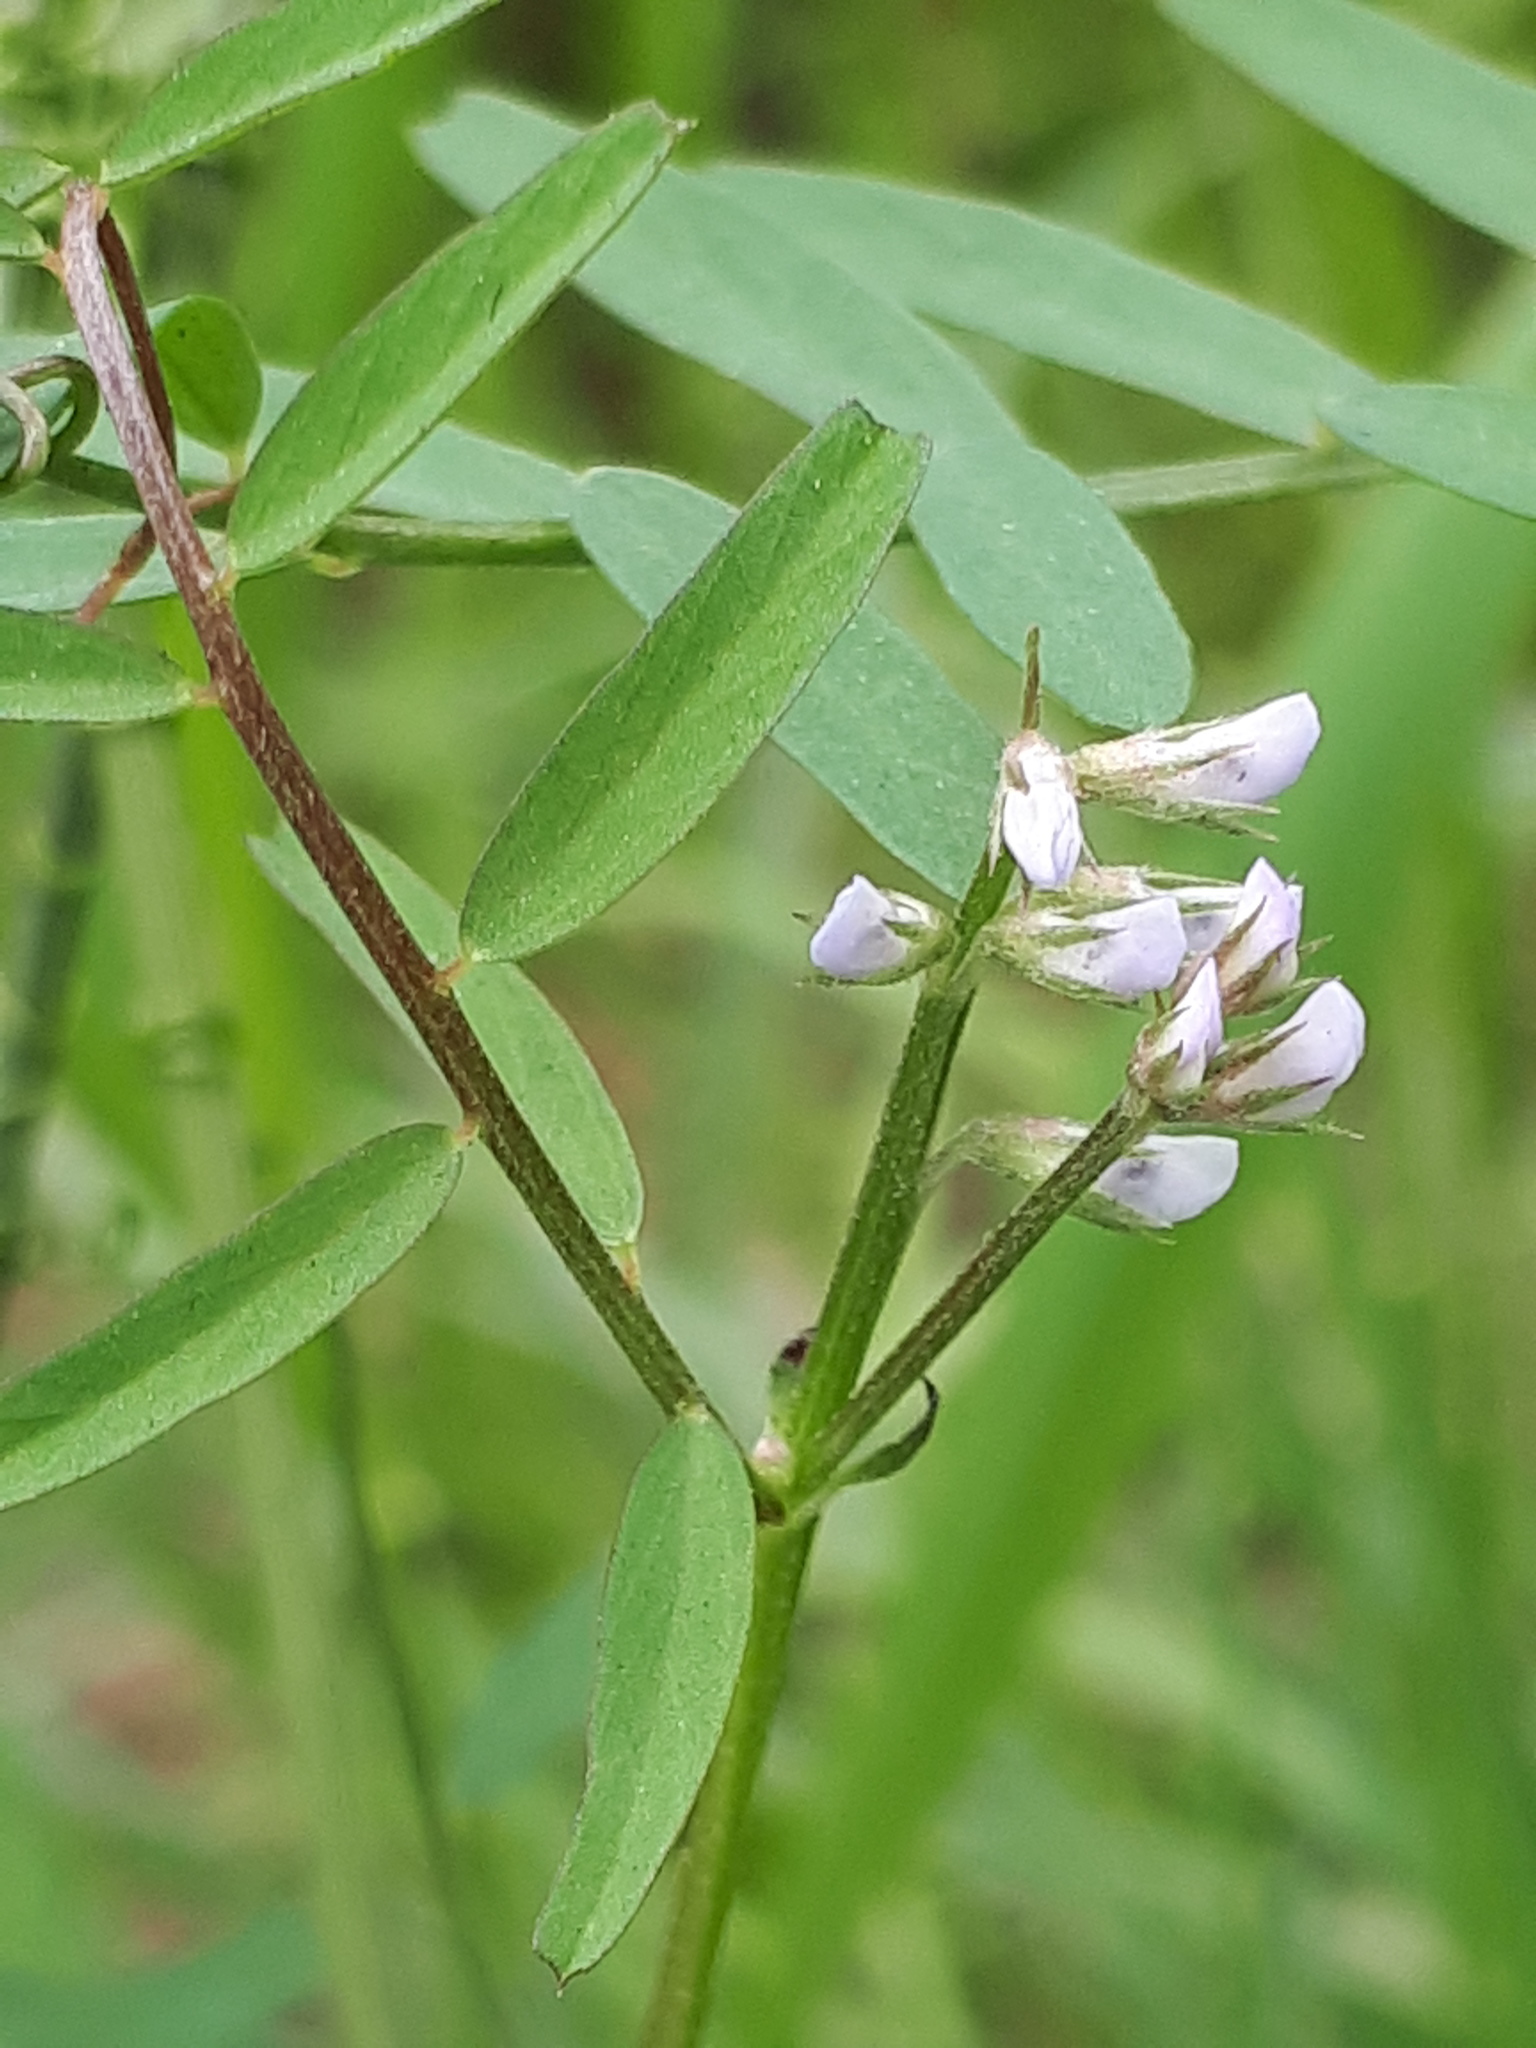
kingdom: Plantae
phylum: Tracheophyta
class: Magnoliopsida
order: Fabales
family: Fabaceae
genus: Vicia
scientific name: Vicia hirsuta
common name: Tiny vetch
